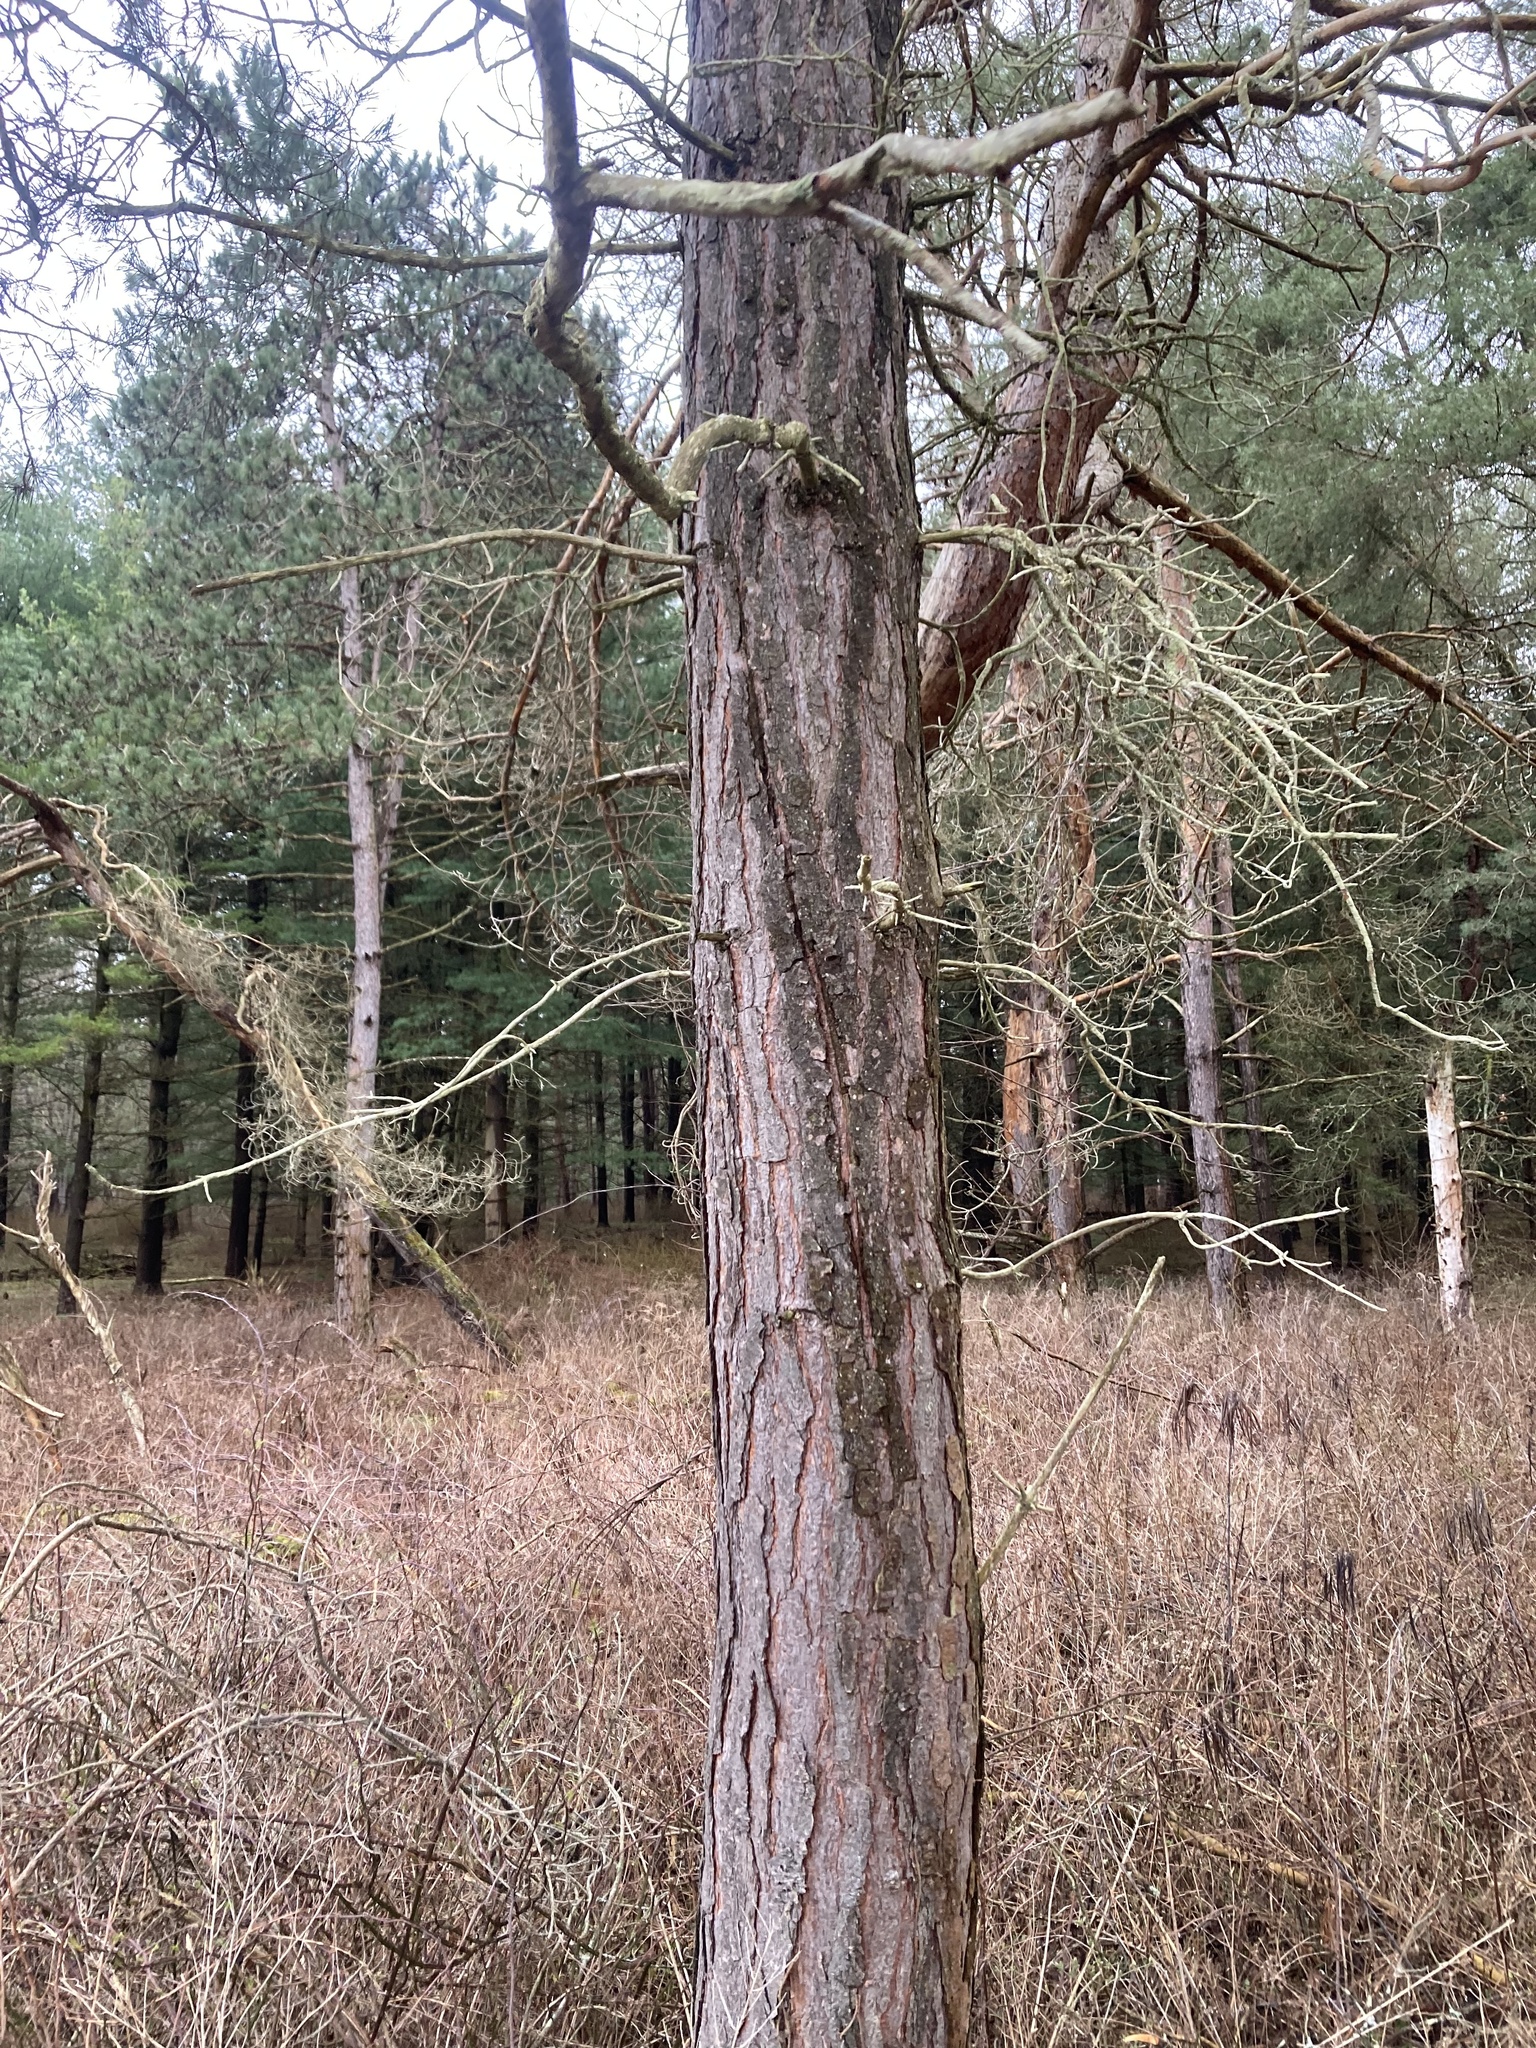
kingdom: Plantae
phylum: Tracheophyta
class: Pinopsida
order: Pinales
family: Pinaceae
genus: Pinus
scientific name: Pinus sylvestris
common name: Scots pine
